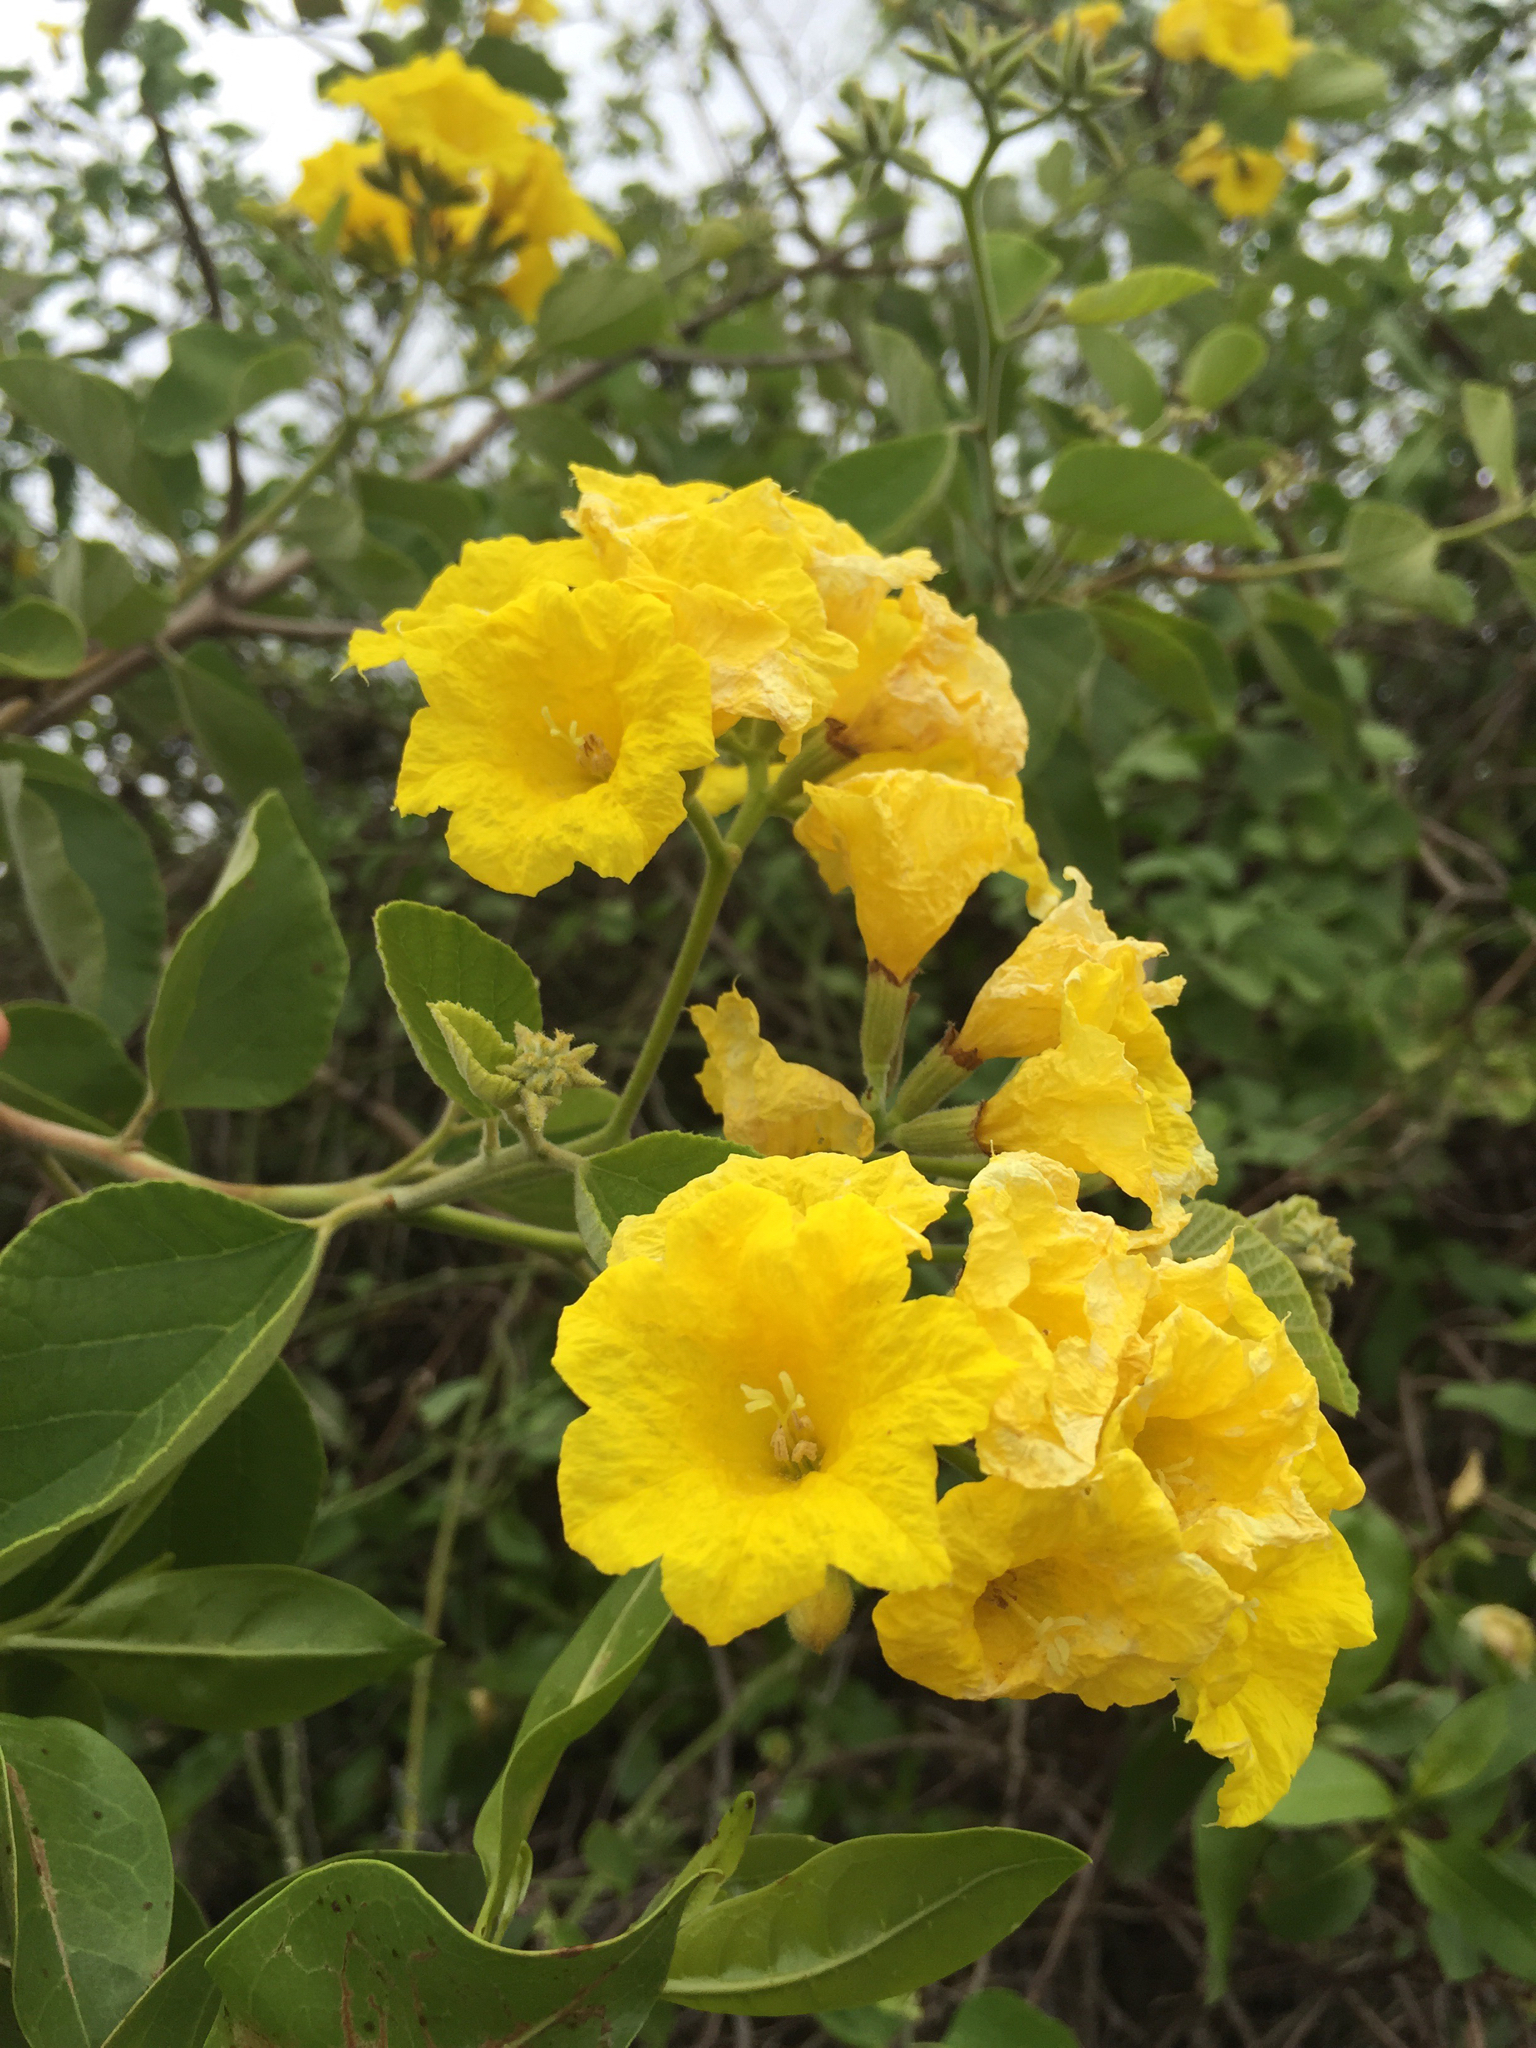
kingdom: Plantae
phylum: Tracheophyta
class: Magnoliopsida
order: Boraginales
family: Cordiaceae
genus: Cordia
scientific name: Cordia lutea
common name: Yellow geiger
